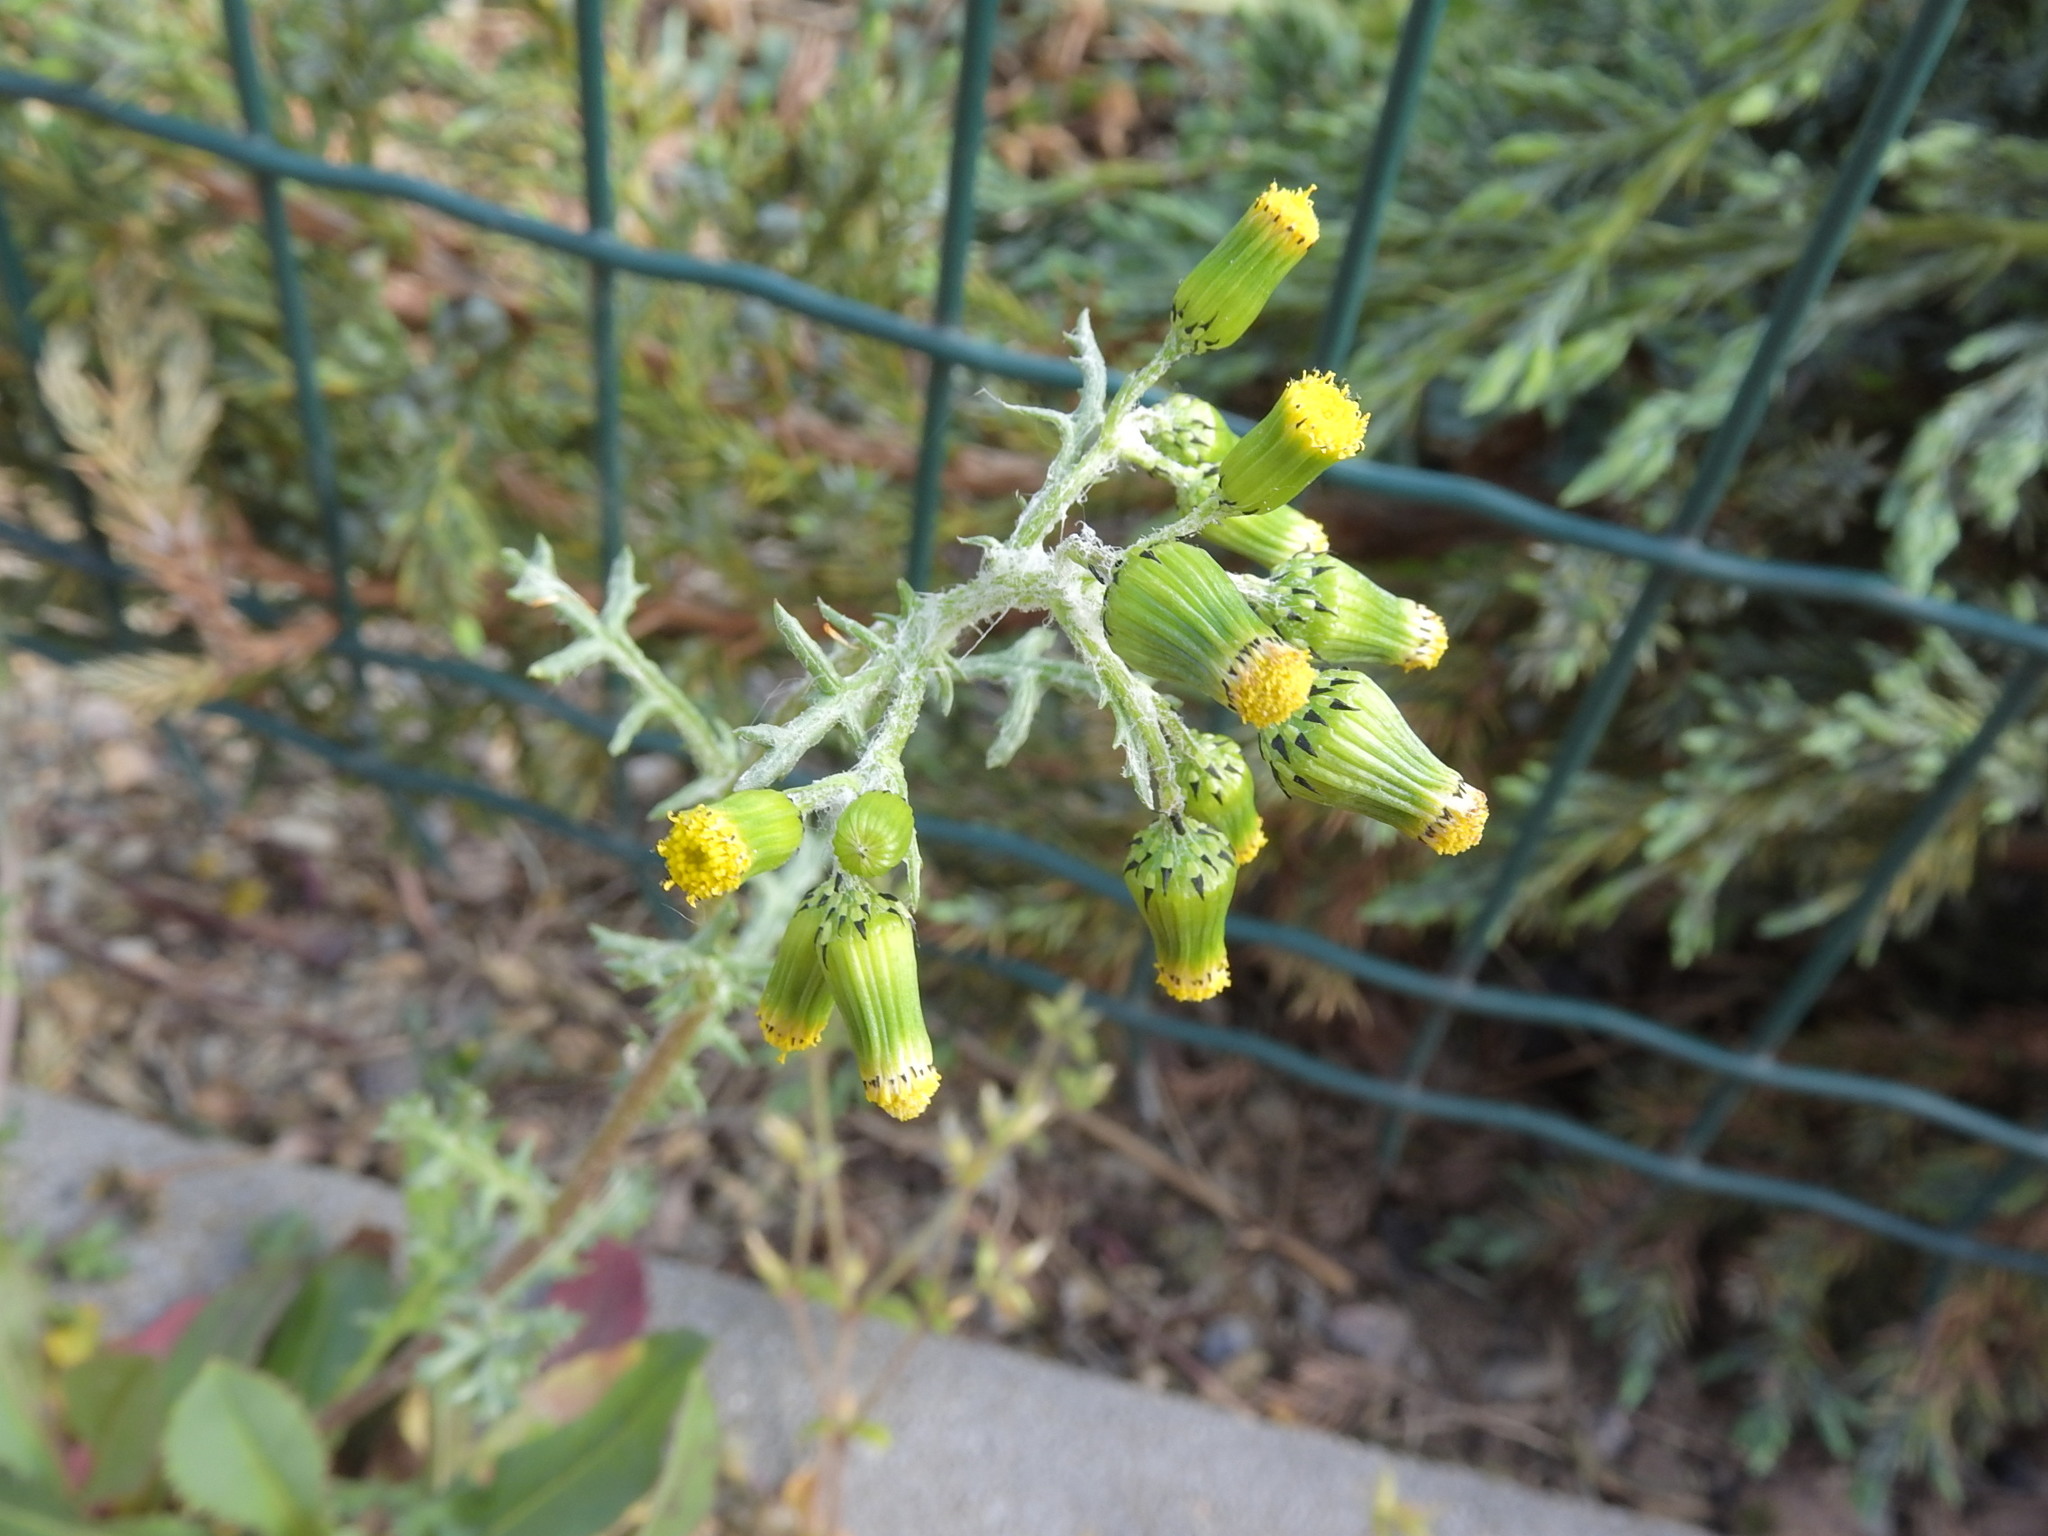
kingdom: Plantae
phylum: Tracheophyta
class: Magnoliopsida
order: Asterales
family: Asteraceae
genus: Senecio
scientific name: Senecio vulgaris
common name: Old-man-in-the-spring
